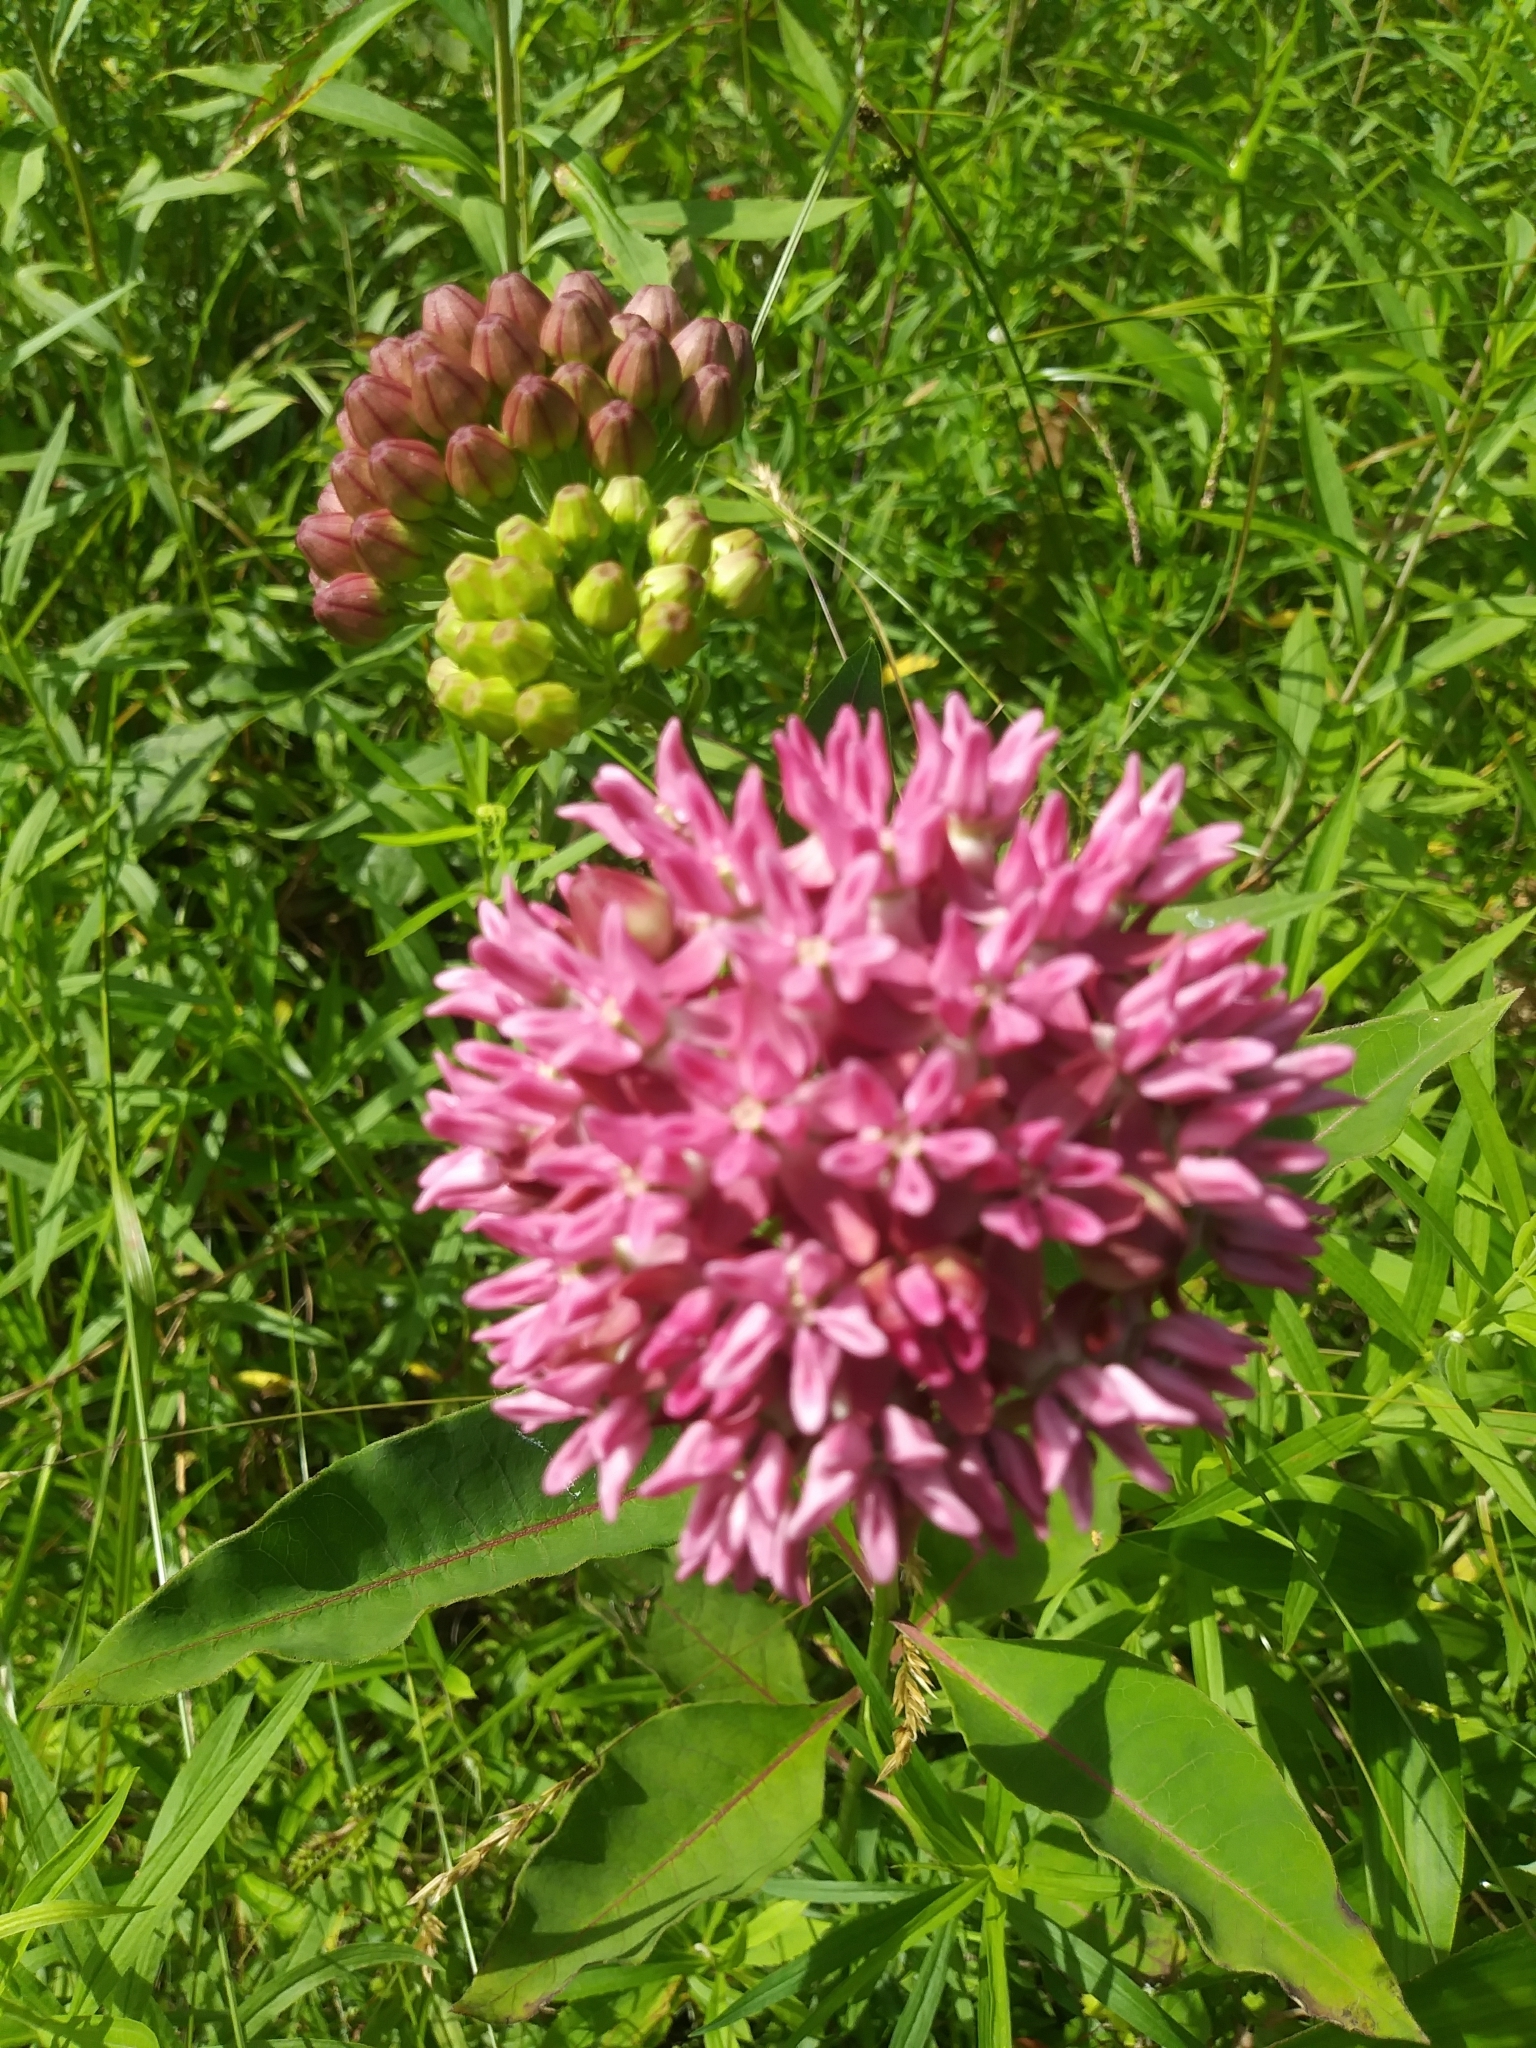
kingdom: Plantae
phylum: Tracheophyta
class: Magnoliopsida
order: Gentianales
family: Apocynaceae
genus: Asclepias
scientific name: Asclepias purpurascens
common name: Purple milkweed
